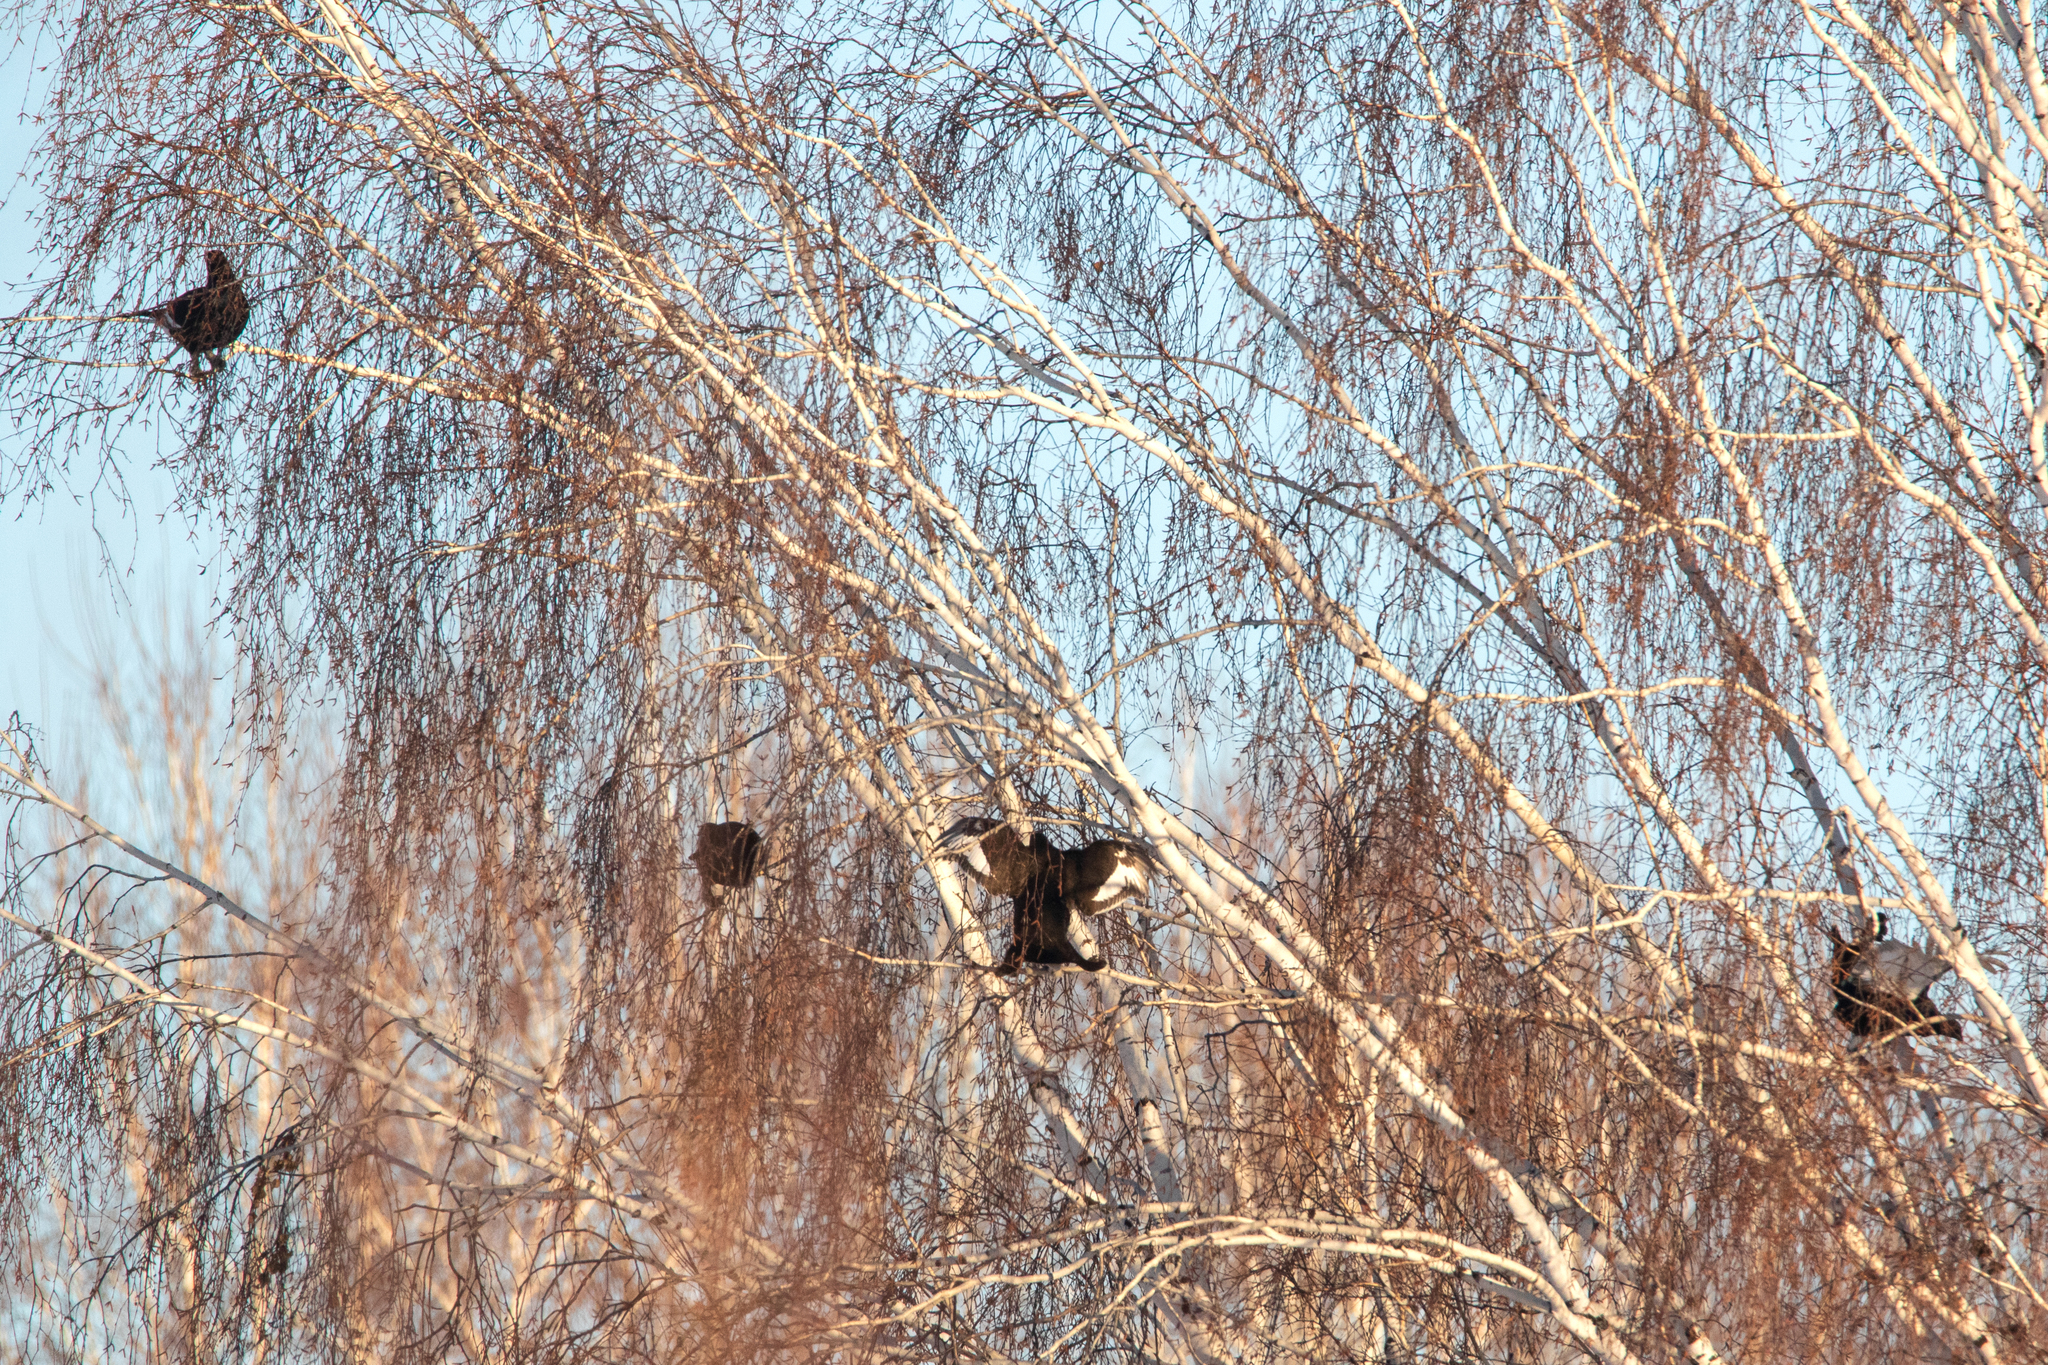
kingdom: Animalia
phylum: Chordata
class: Aves
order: Galliformes
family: Phasianidae
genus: Lyrurus
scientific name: Lyrurus tetrix
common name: Black grouse
